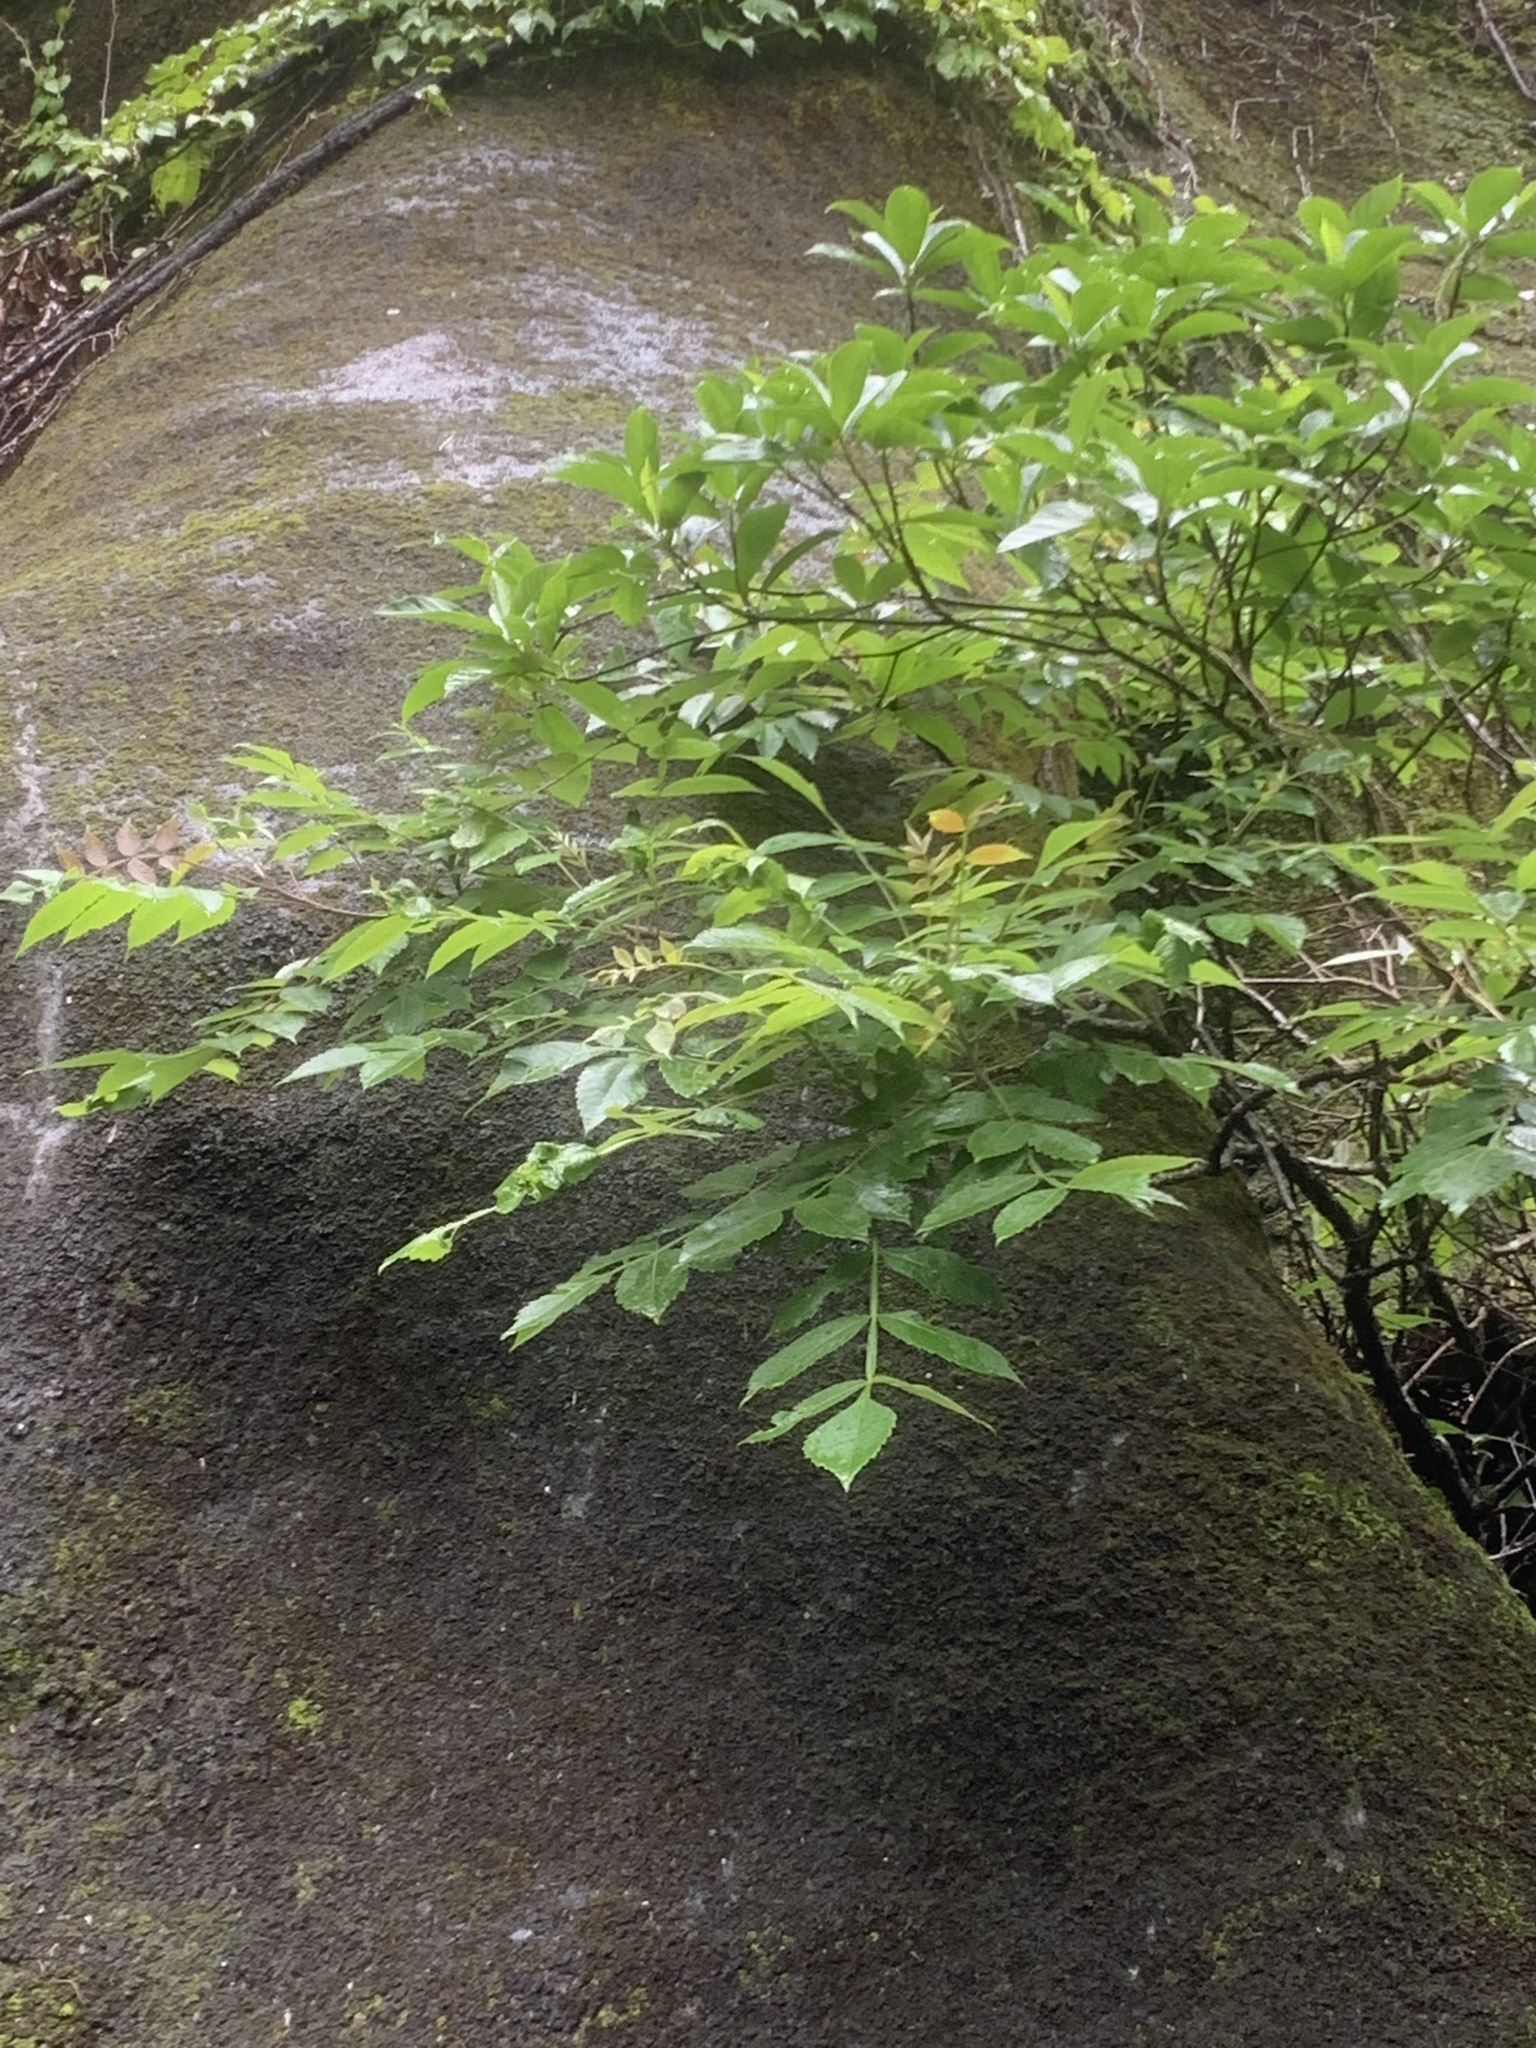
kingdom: Plantae
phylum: Tracheophyta
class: Magnoliopsida
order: Sapindales
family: Anacardiaceae
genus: Rhus
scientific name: Rhus chinensis
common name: Chinese gall
